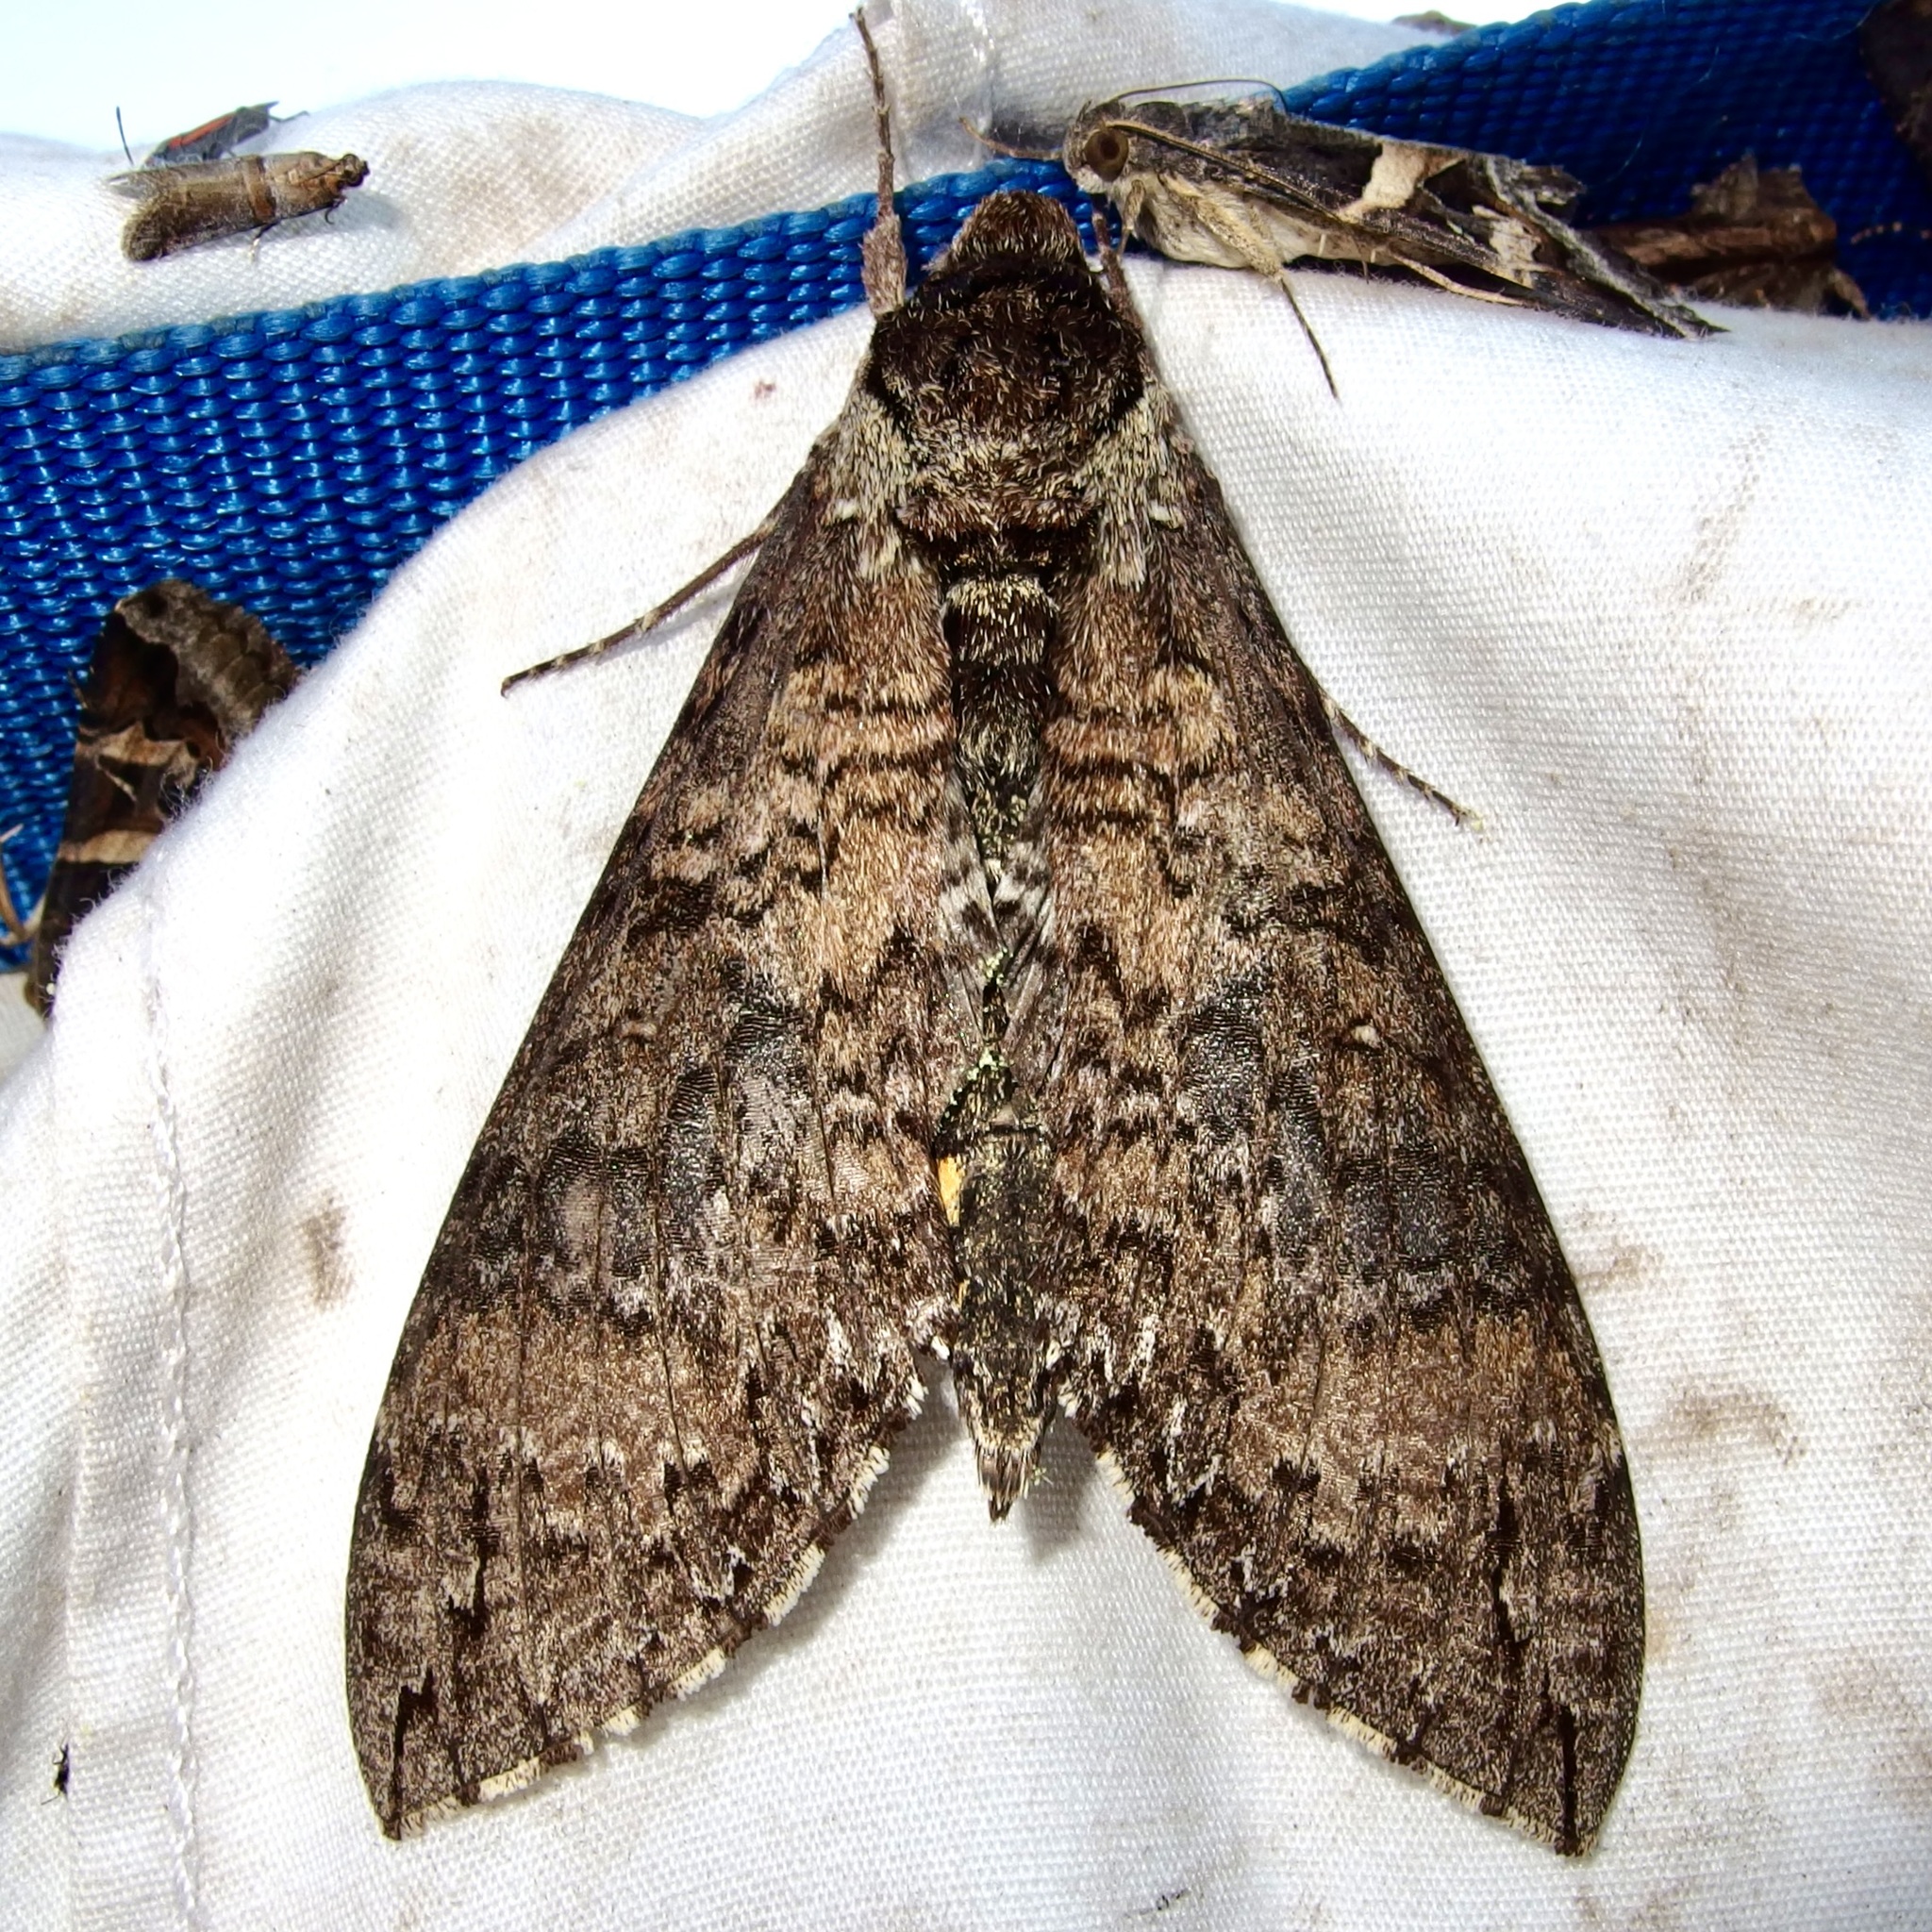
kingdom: Animalia
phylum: Arthropoda
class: Insecta
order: Lepidoptera
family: Sphingidae
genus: Manduca
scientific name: Manduca occulta
